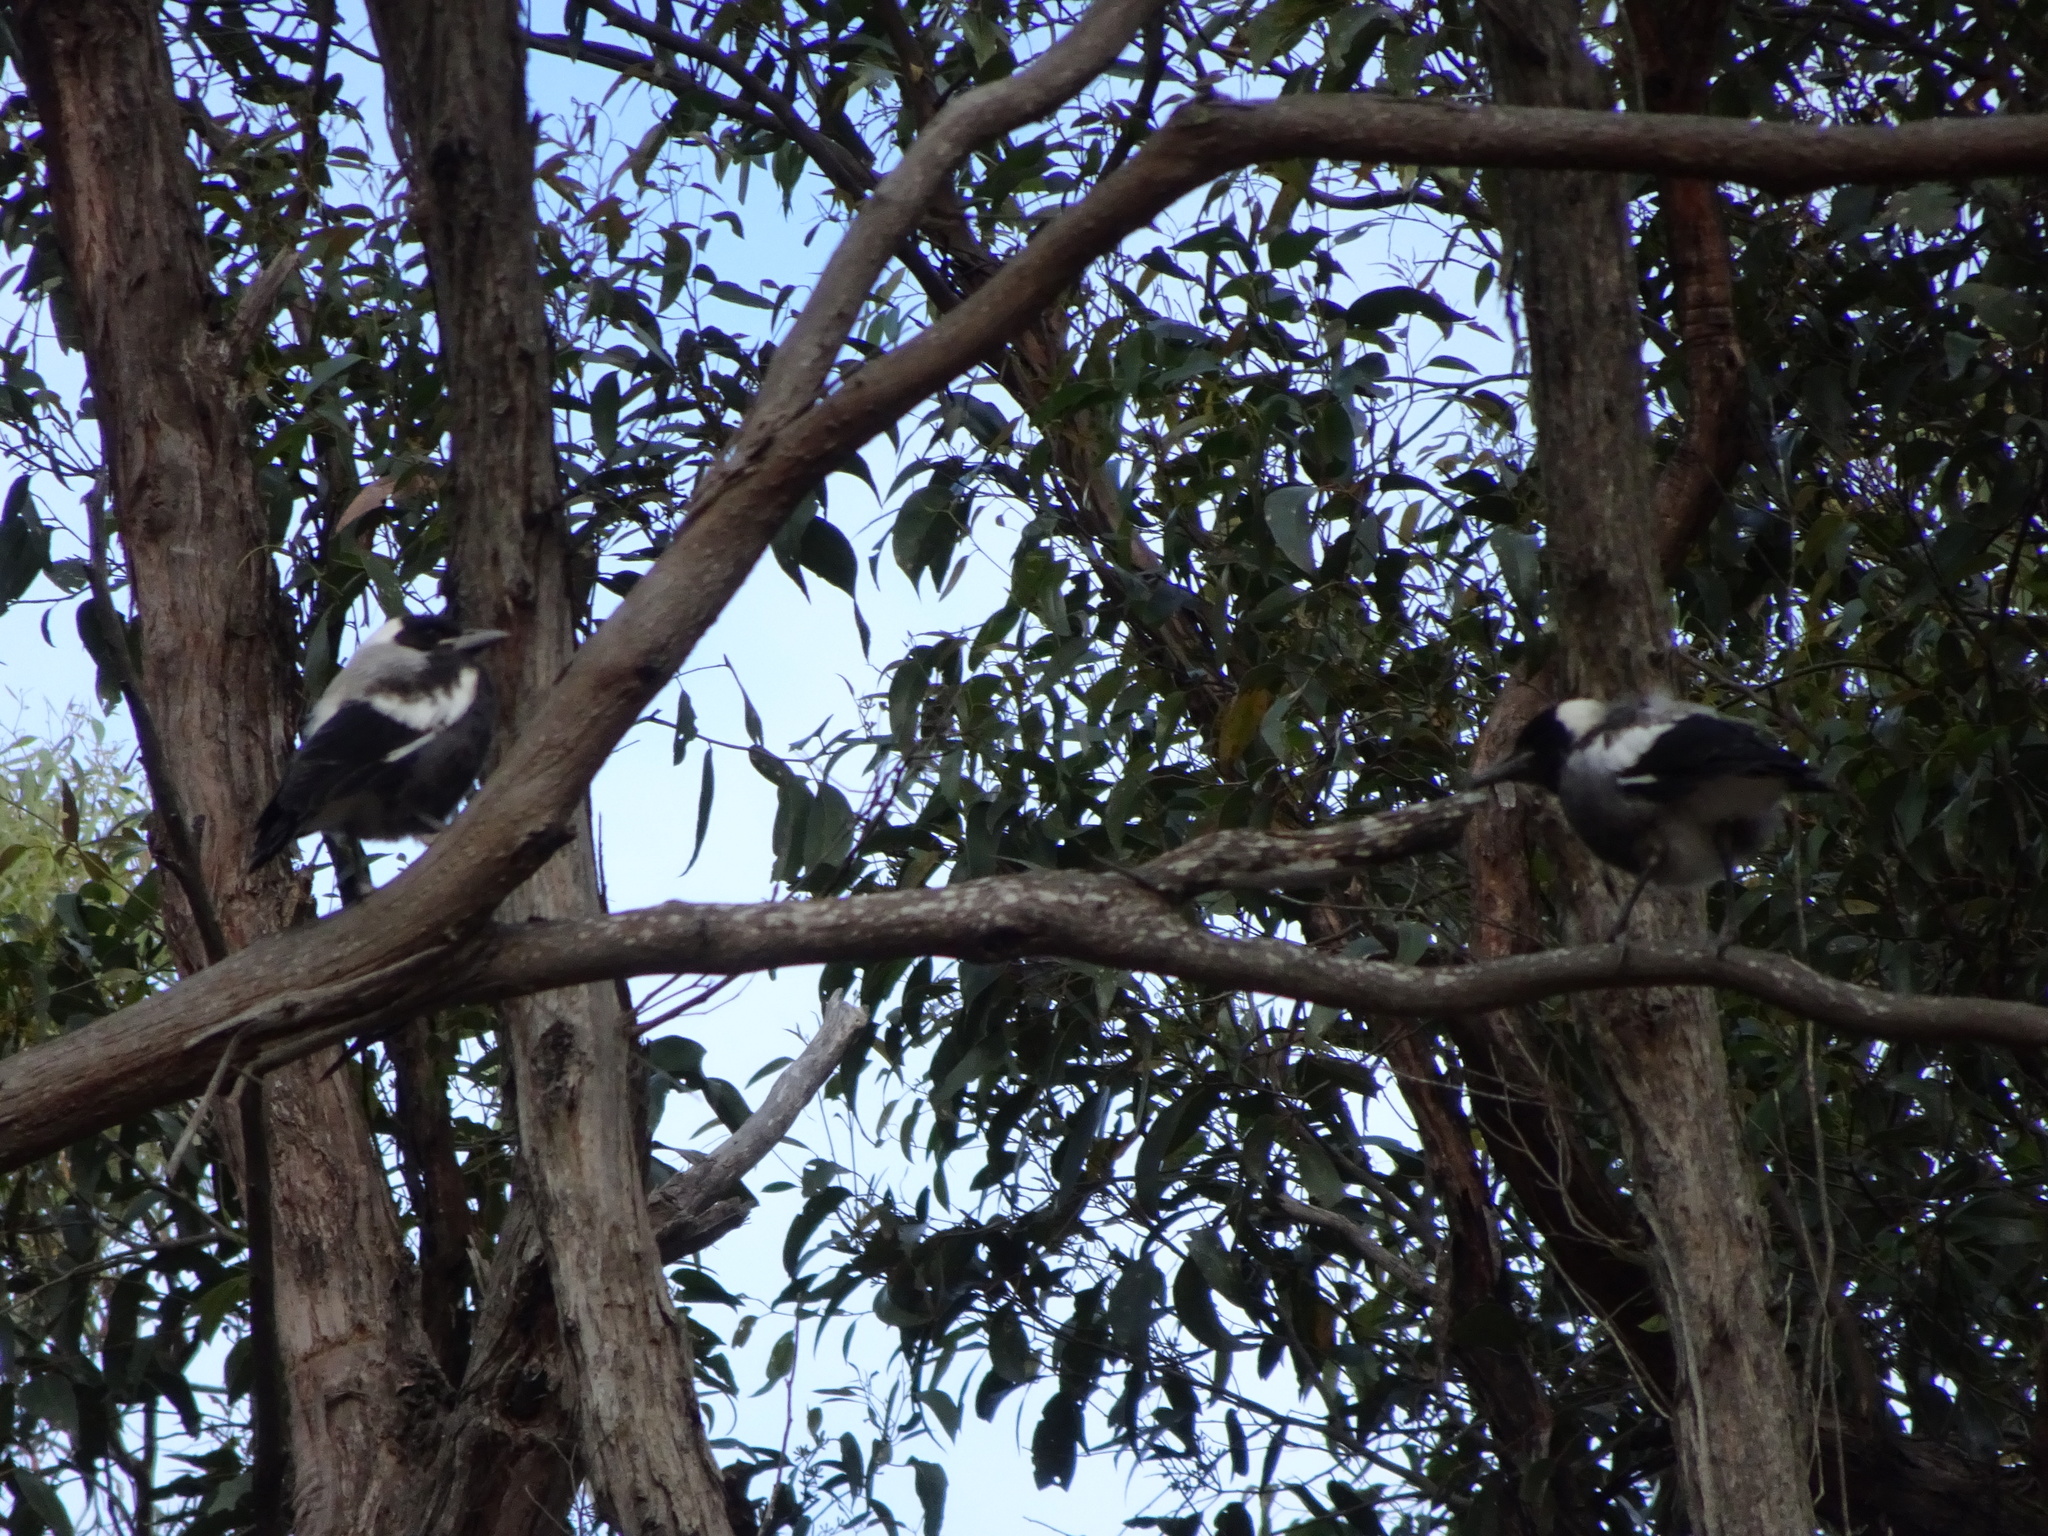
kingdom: Animalia
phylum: Chordata
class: Aves
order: Passeriformes
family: Cracticidae
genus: Gymnorhina
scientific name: Gymnorhina tibicen
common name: Australian magpie
